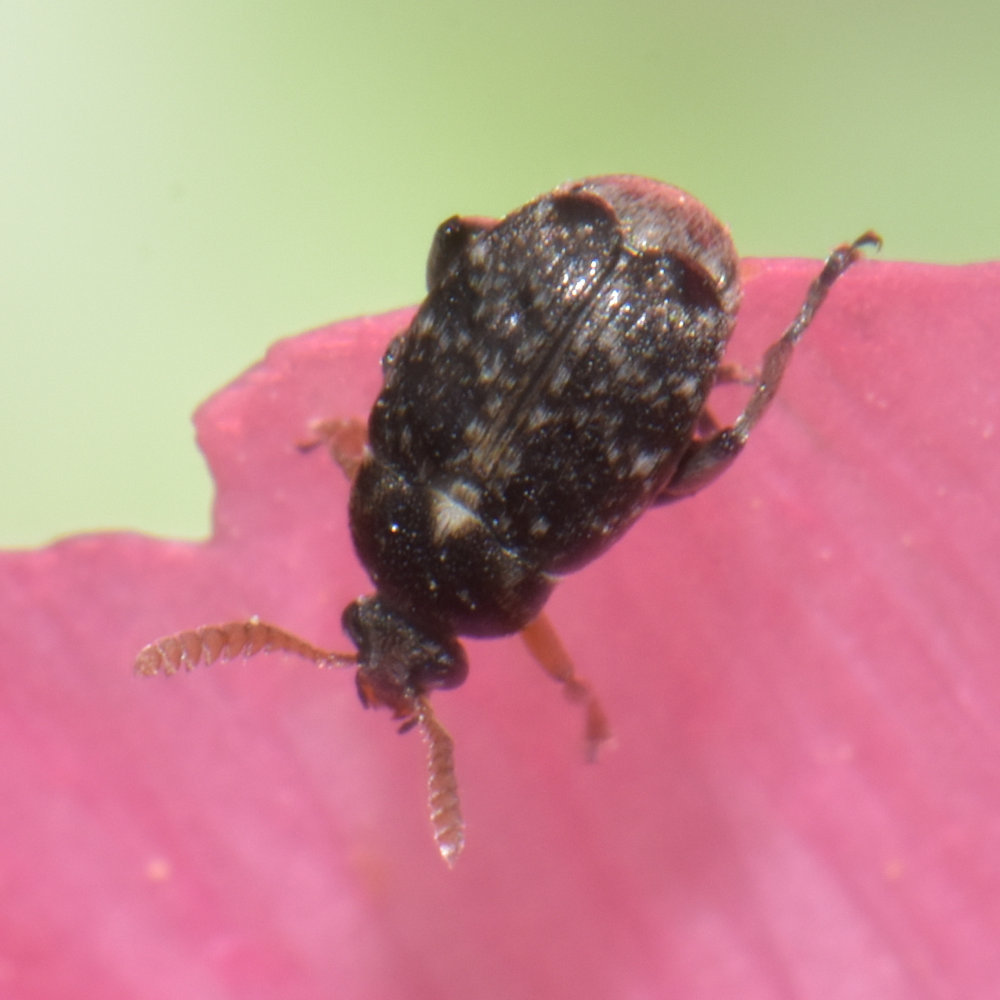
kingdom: Animalia
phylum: Arthropoda
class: Insecta
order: Coleoptera
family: Chrysomelidae
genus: Bruchus
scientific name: Bruchus brachialis
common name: Vetch bruchid
